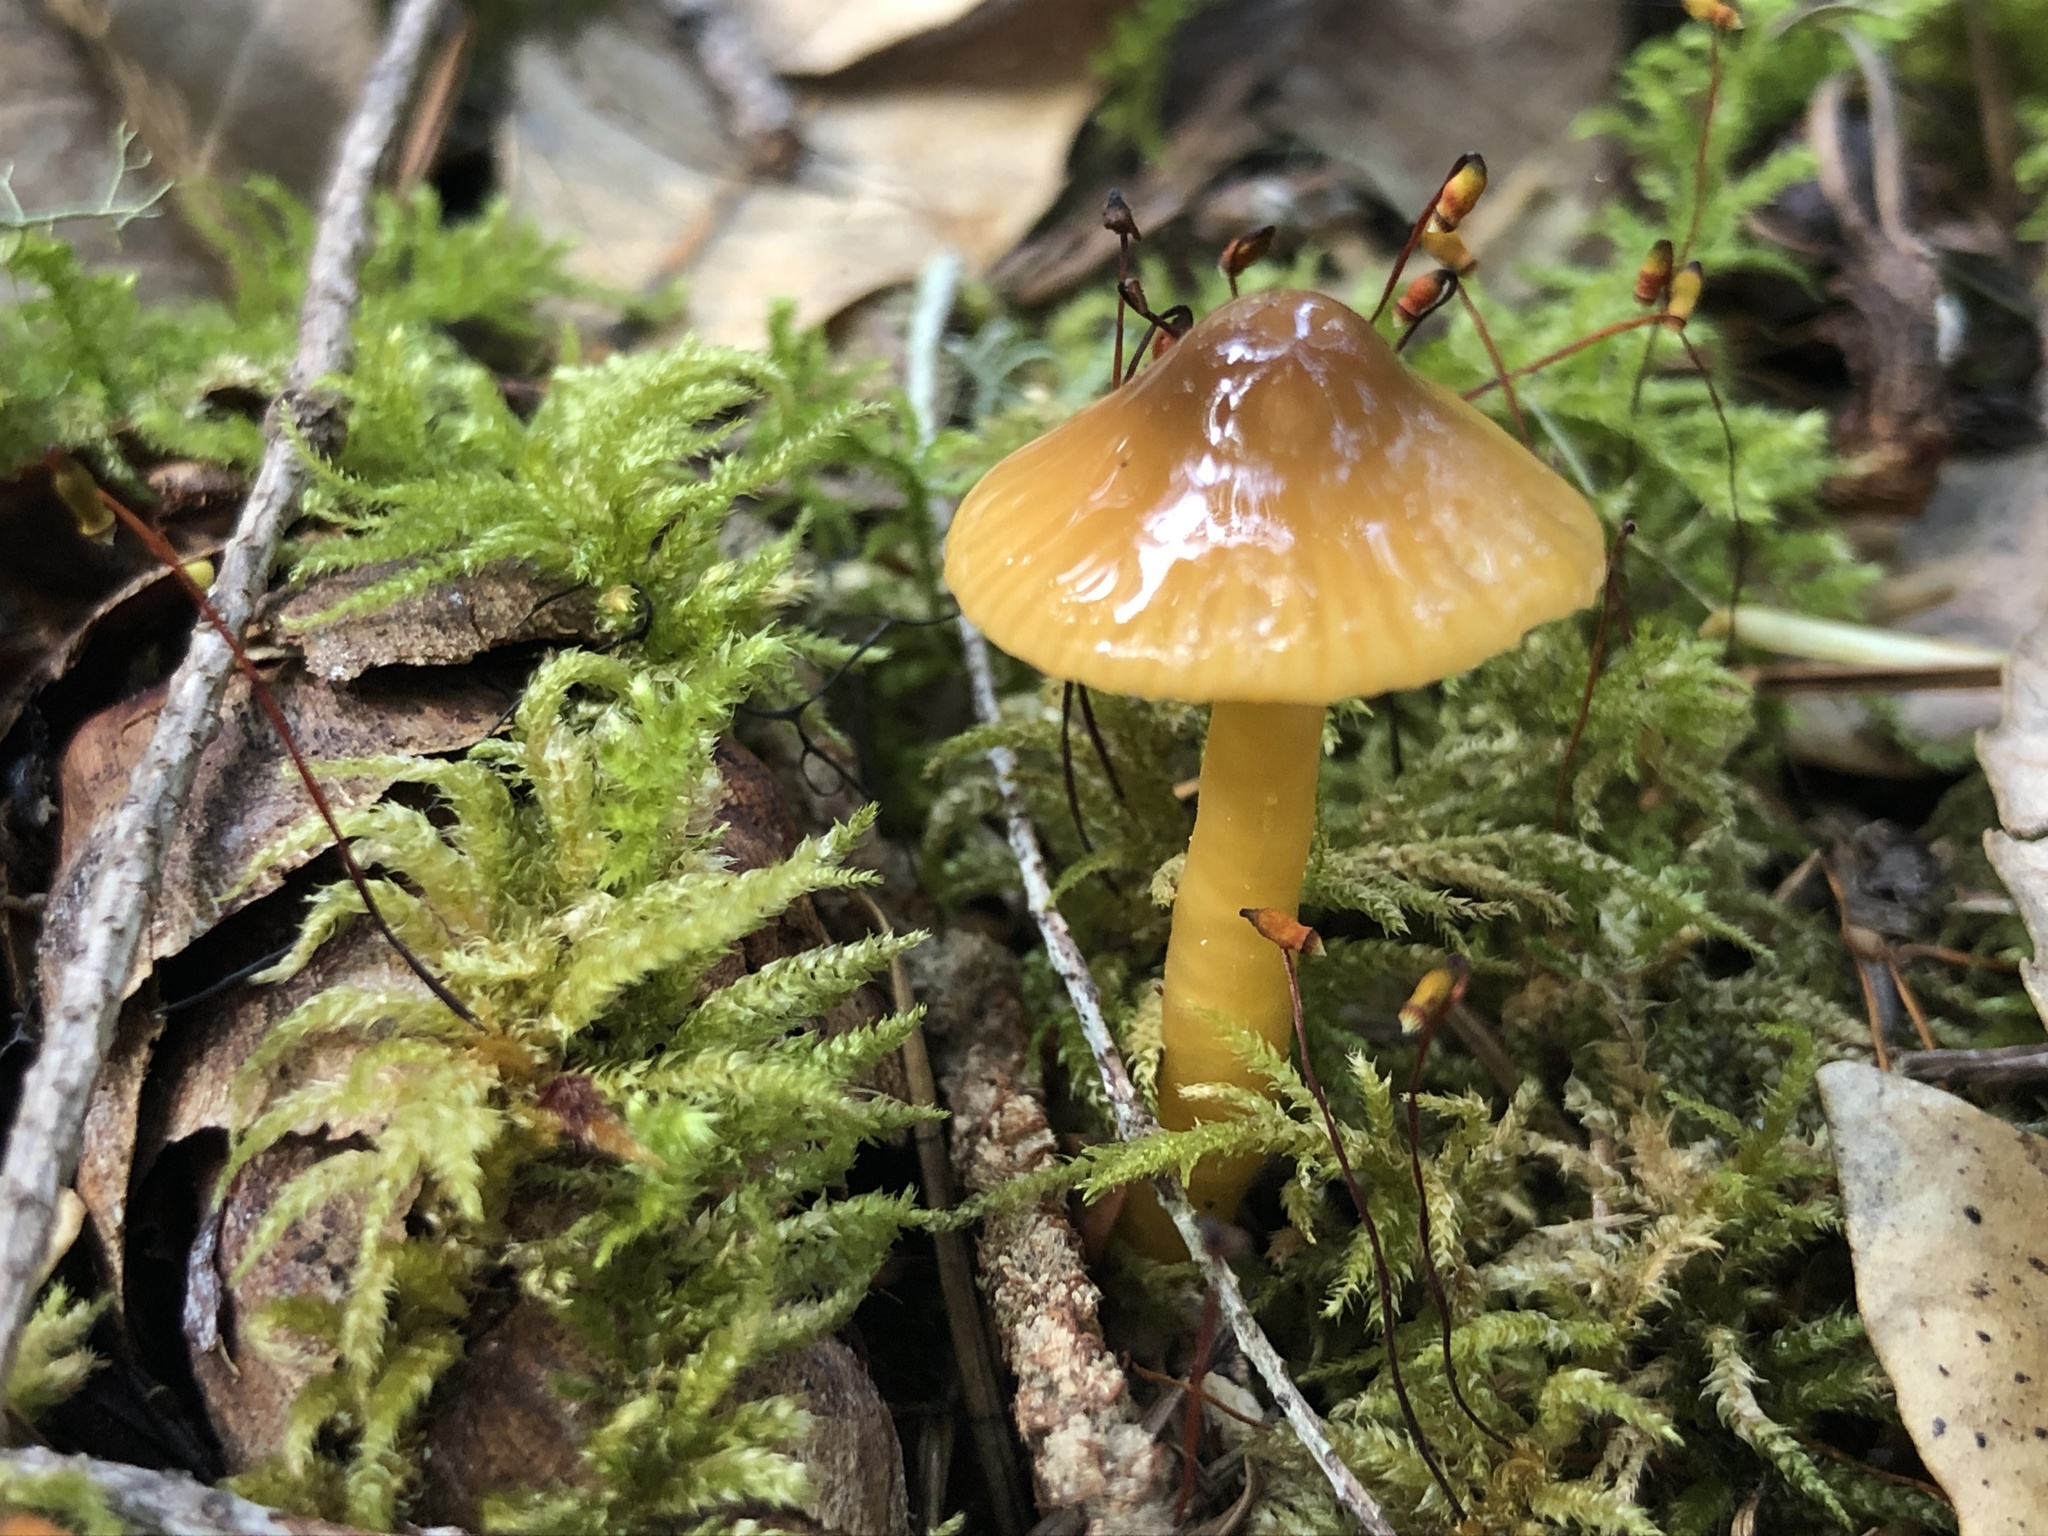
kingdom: Fungi
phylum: Basidiomycota
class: Agaricomycetes
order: Agaricales
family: Hygrophoraceae
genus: Gliophorus
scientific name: Gliophorus psittacinus
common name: Parrot wax-cap
